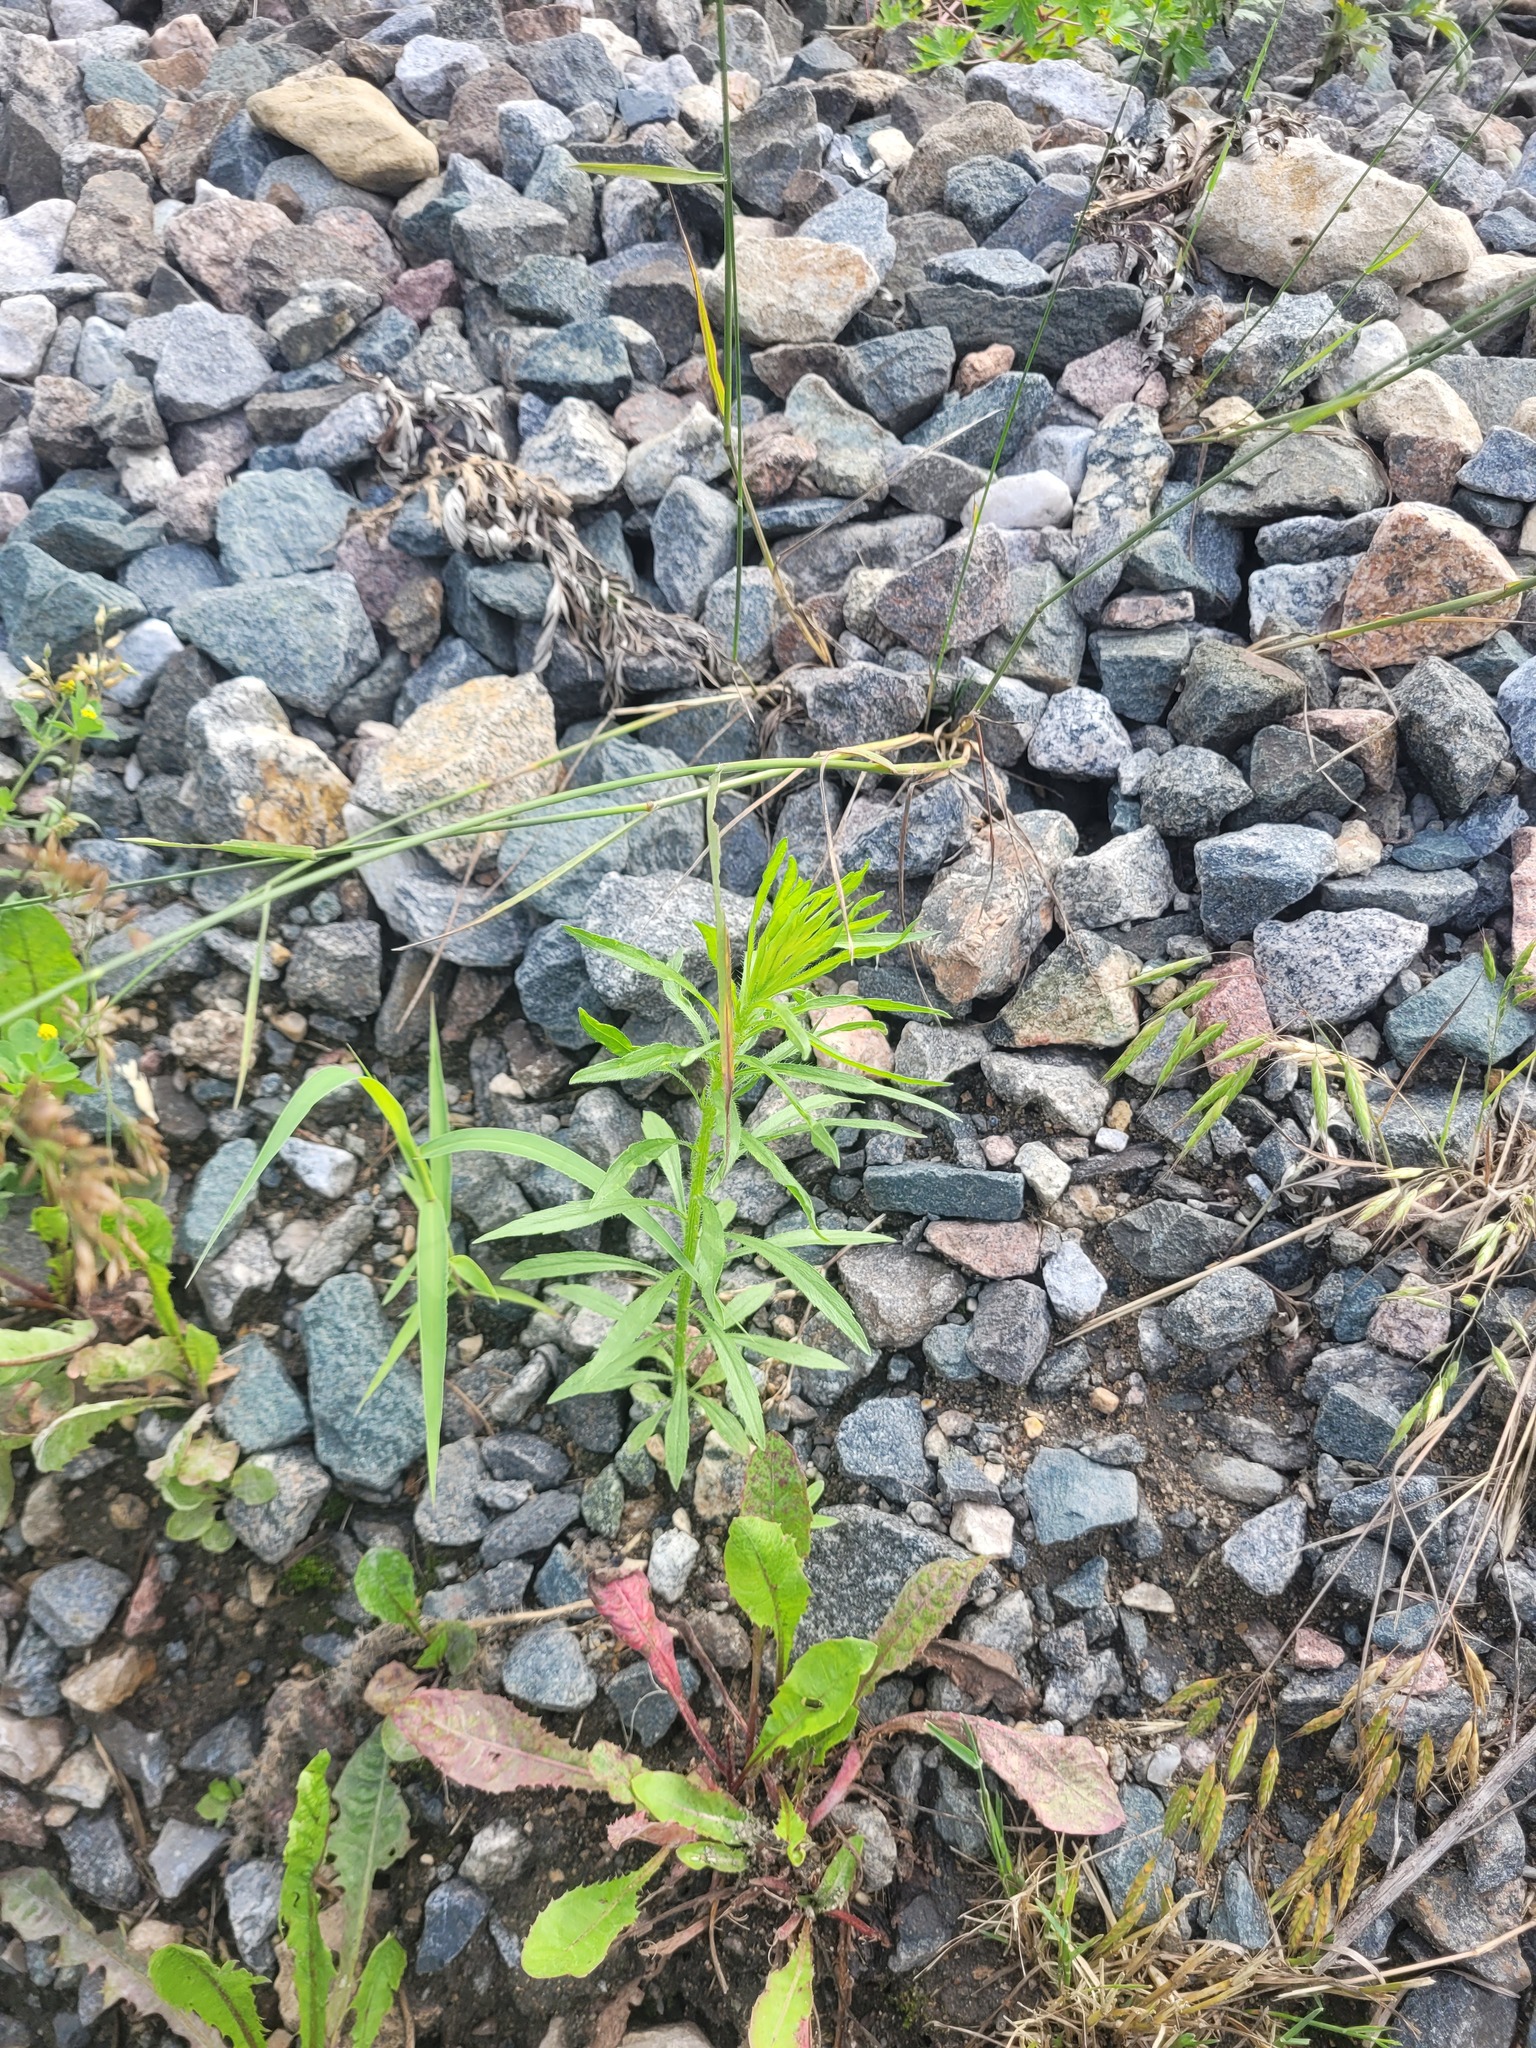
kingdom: Plantae
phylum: Tracheophyta
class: Magnoliopsida
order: Asterales
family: Asteraceae
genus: Erigeron
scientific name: Erigeron canadensis
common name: Canadian fleabane
